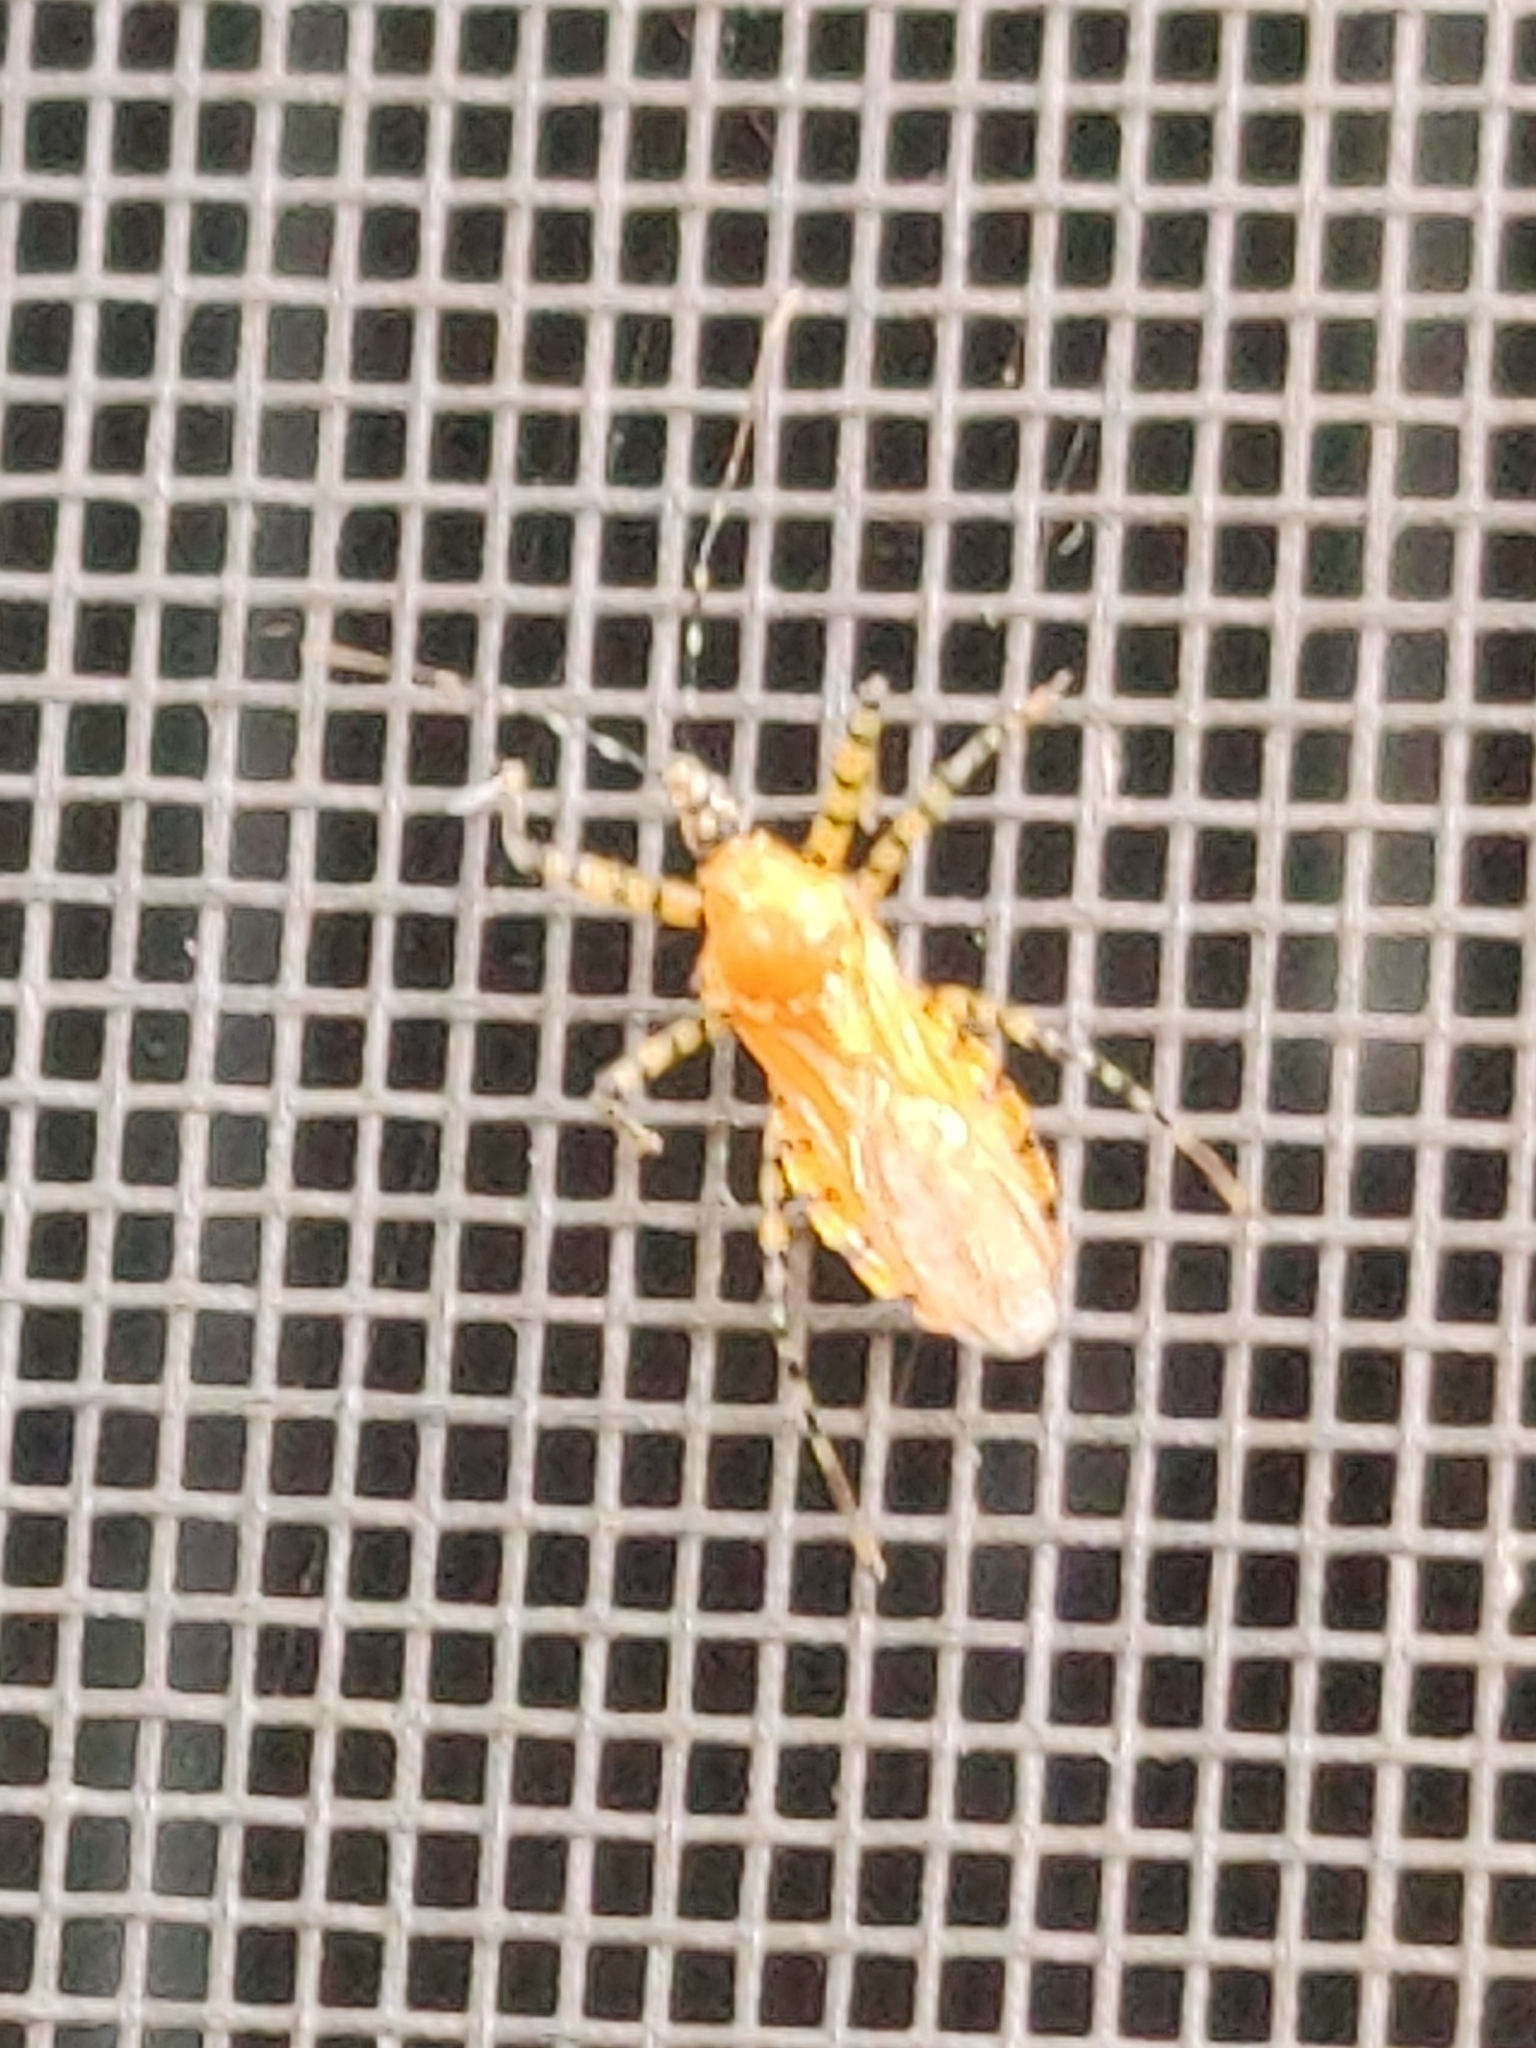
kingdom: Animalia
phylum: Arthropoda
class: Insecta
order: Hemiptera
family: Reduviidae
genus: Pselliopus
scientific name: Pselliopus barberi
